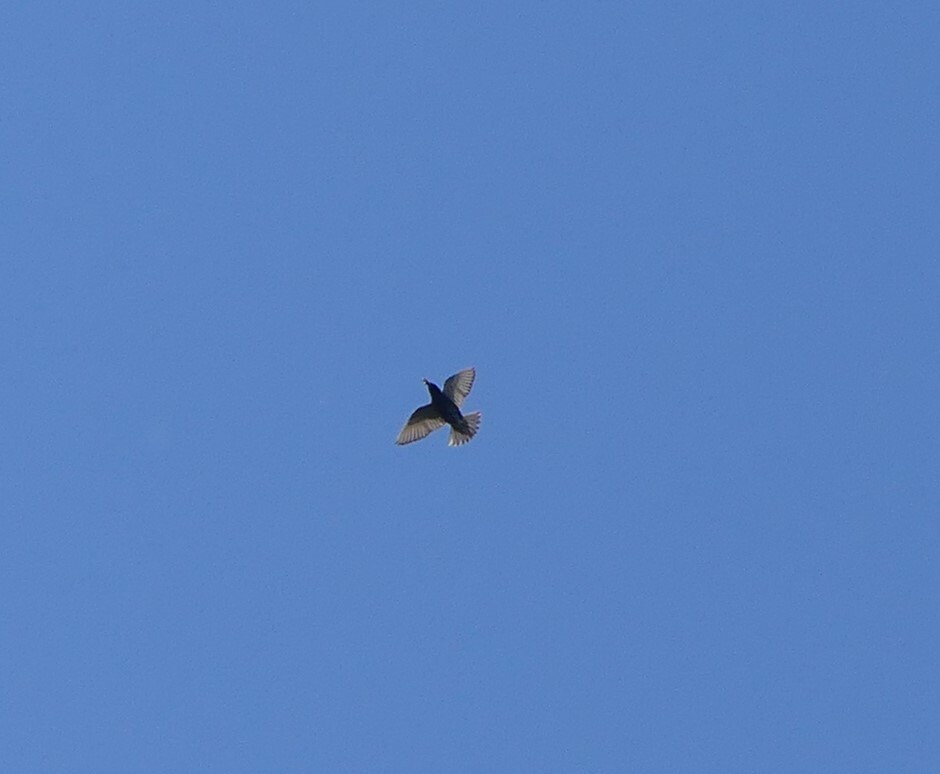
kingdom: Animalia
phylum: Chordata
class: Aves
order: Passeriformes
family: Sturnidae
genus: Sturnus
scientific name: Sturnus vulgaris
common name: Common starling
